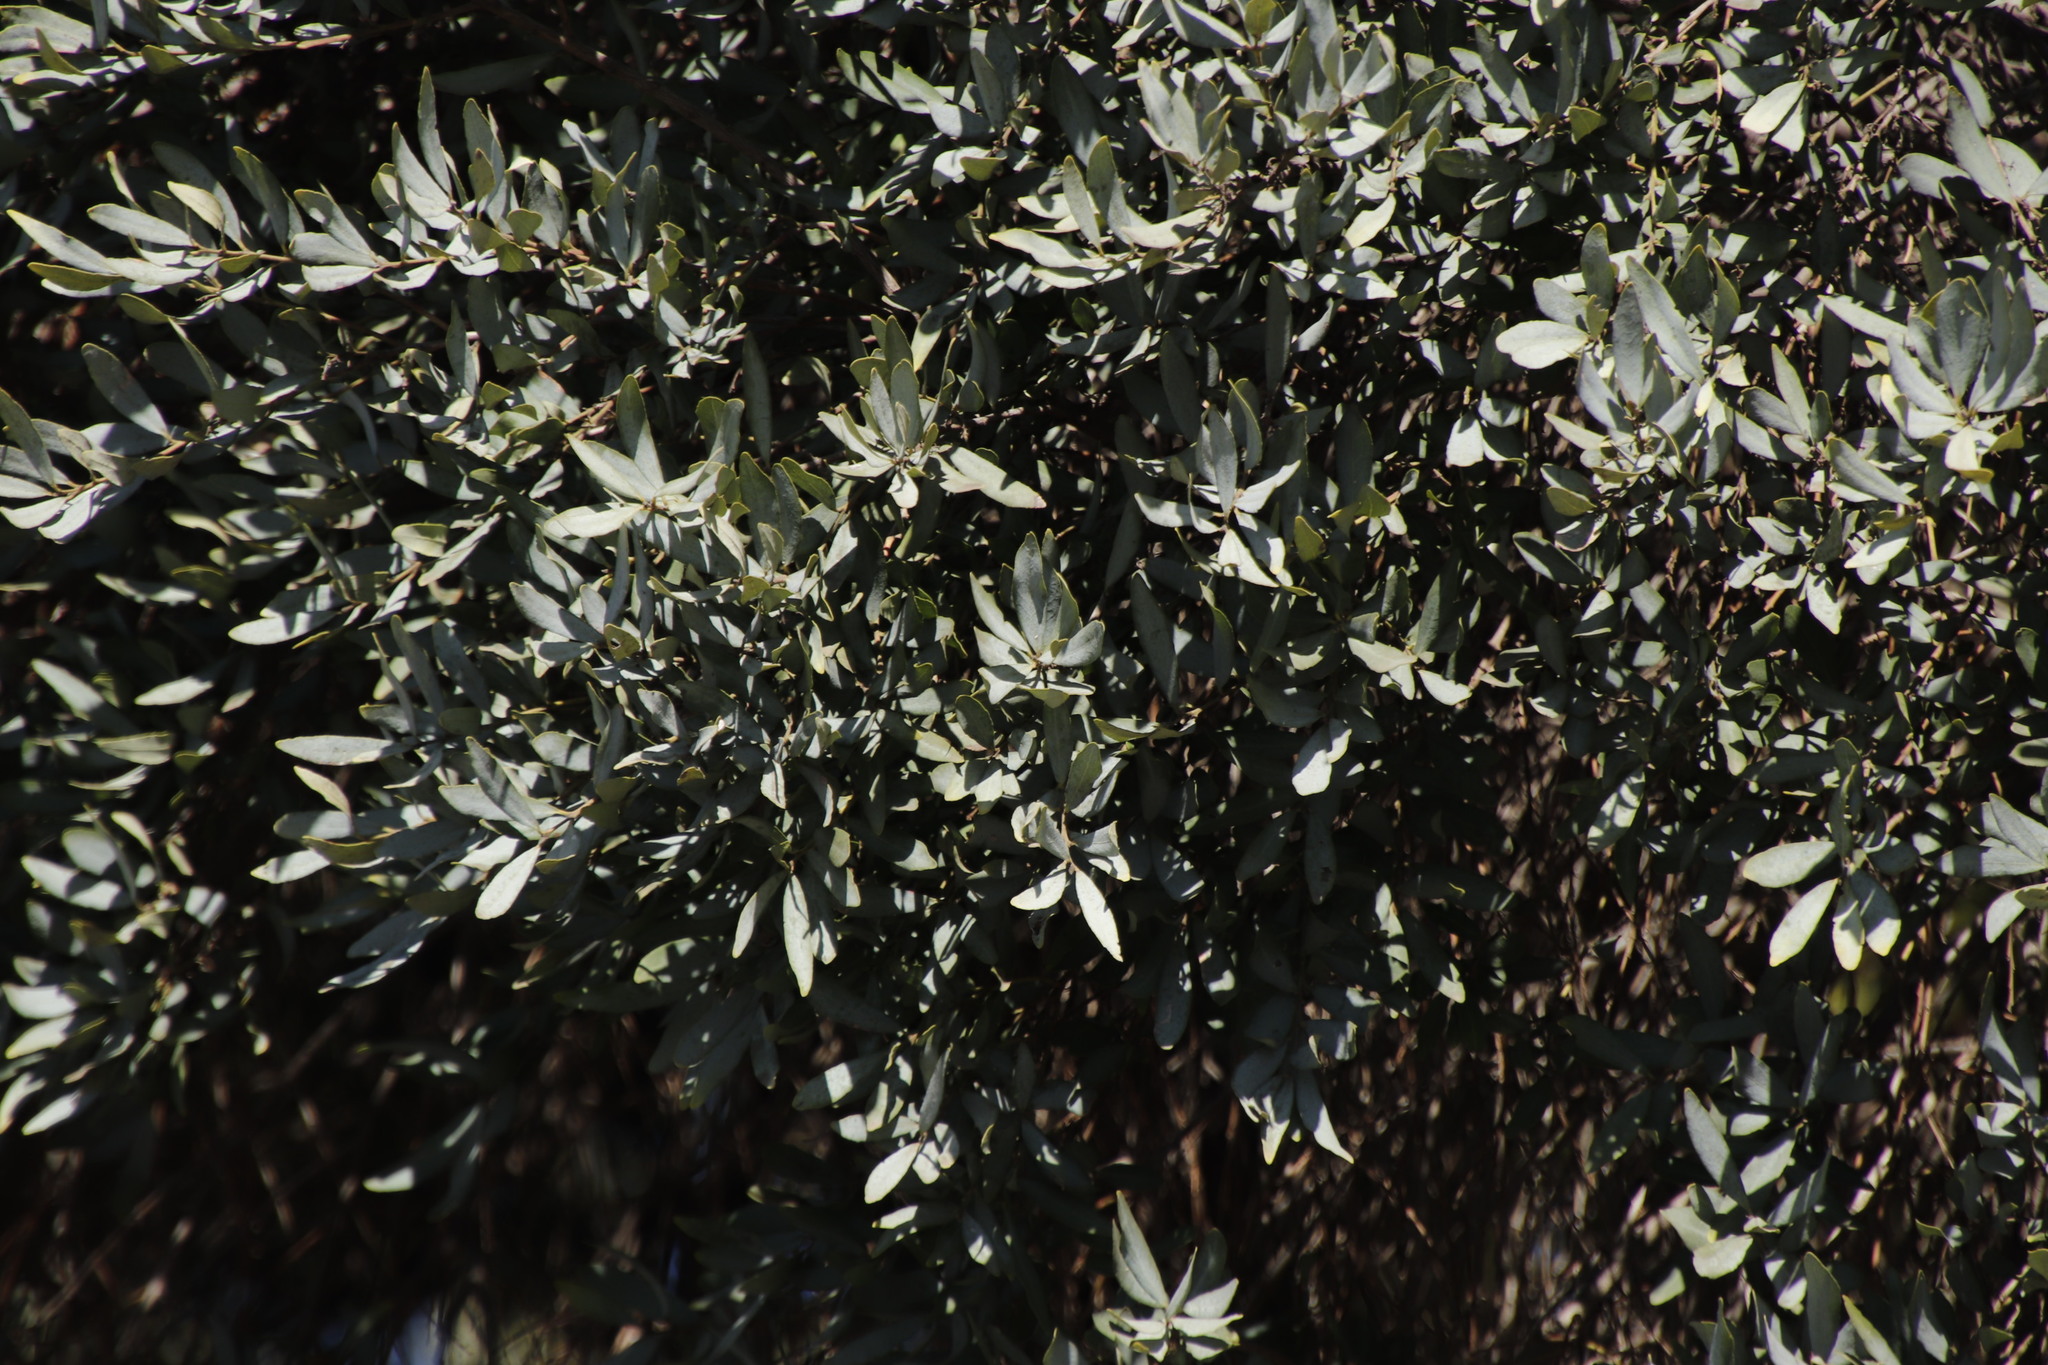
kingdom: Plantae
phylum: Tracheophyta
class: Magnoliopsida
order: Ericales
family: Ebenaceae
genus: Euclea
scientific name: Euclea crispa
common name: Blue guarri
